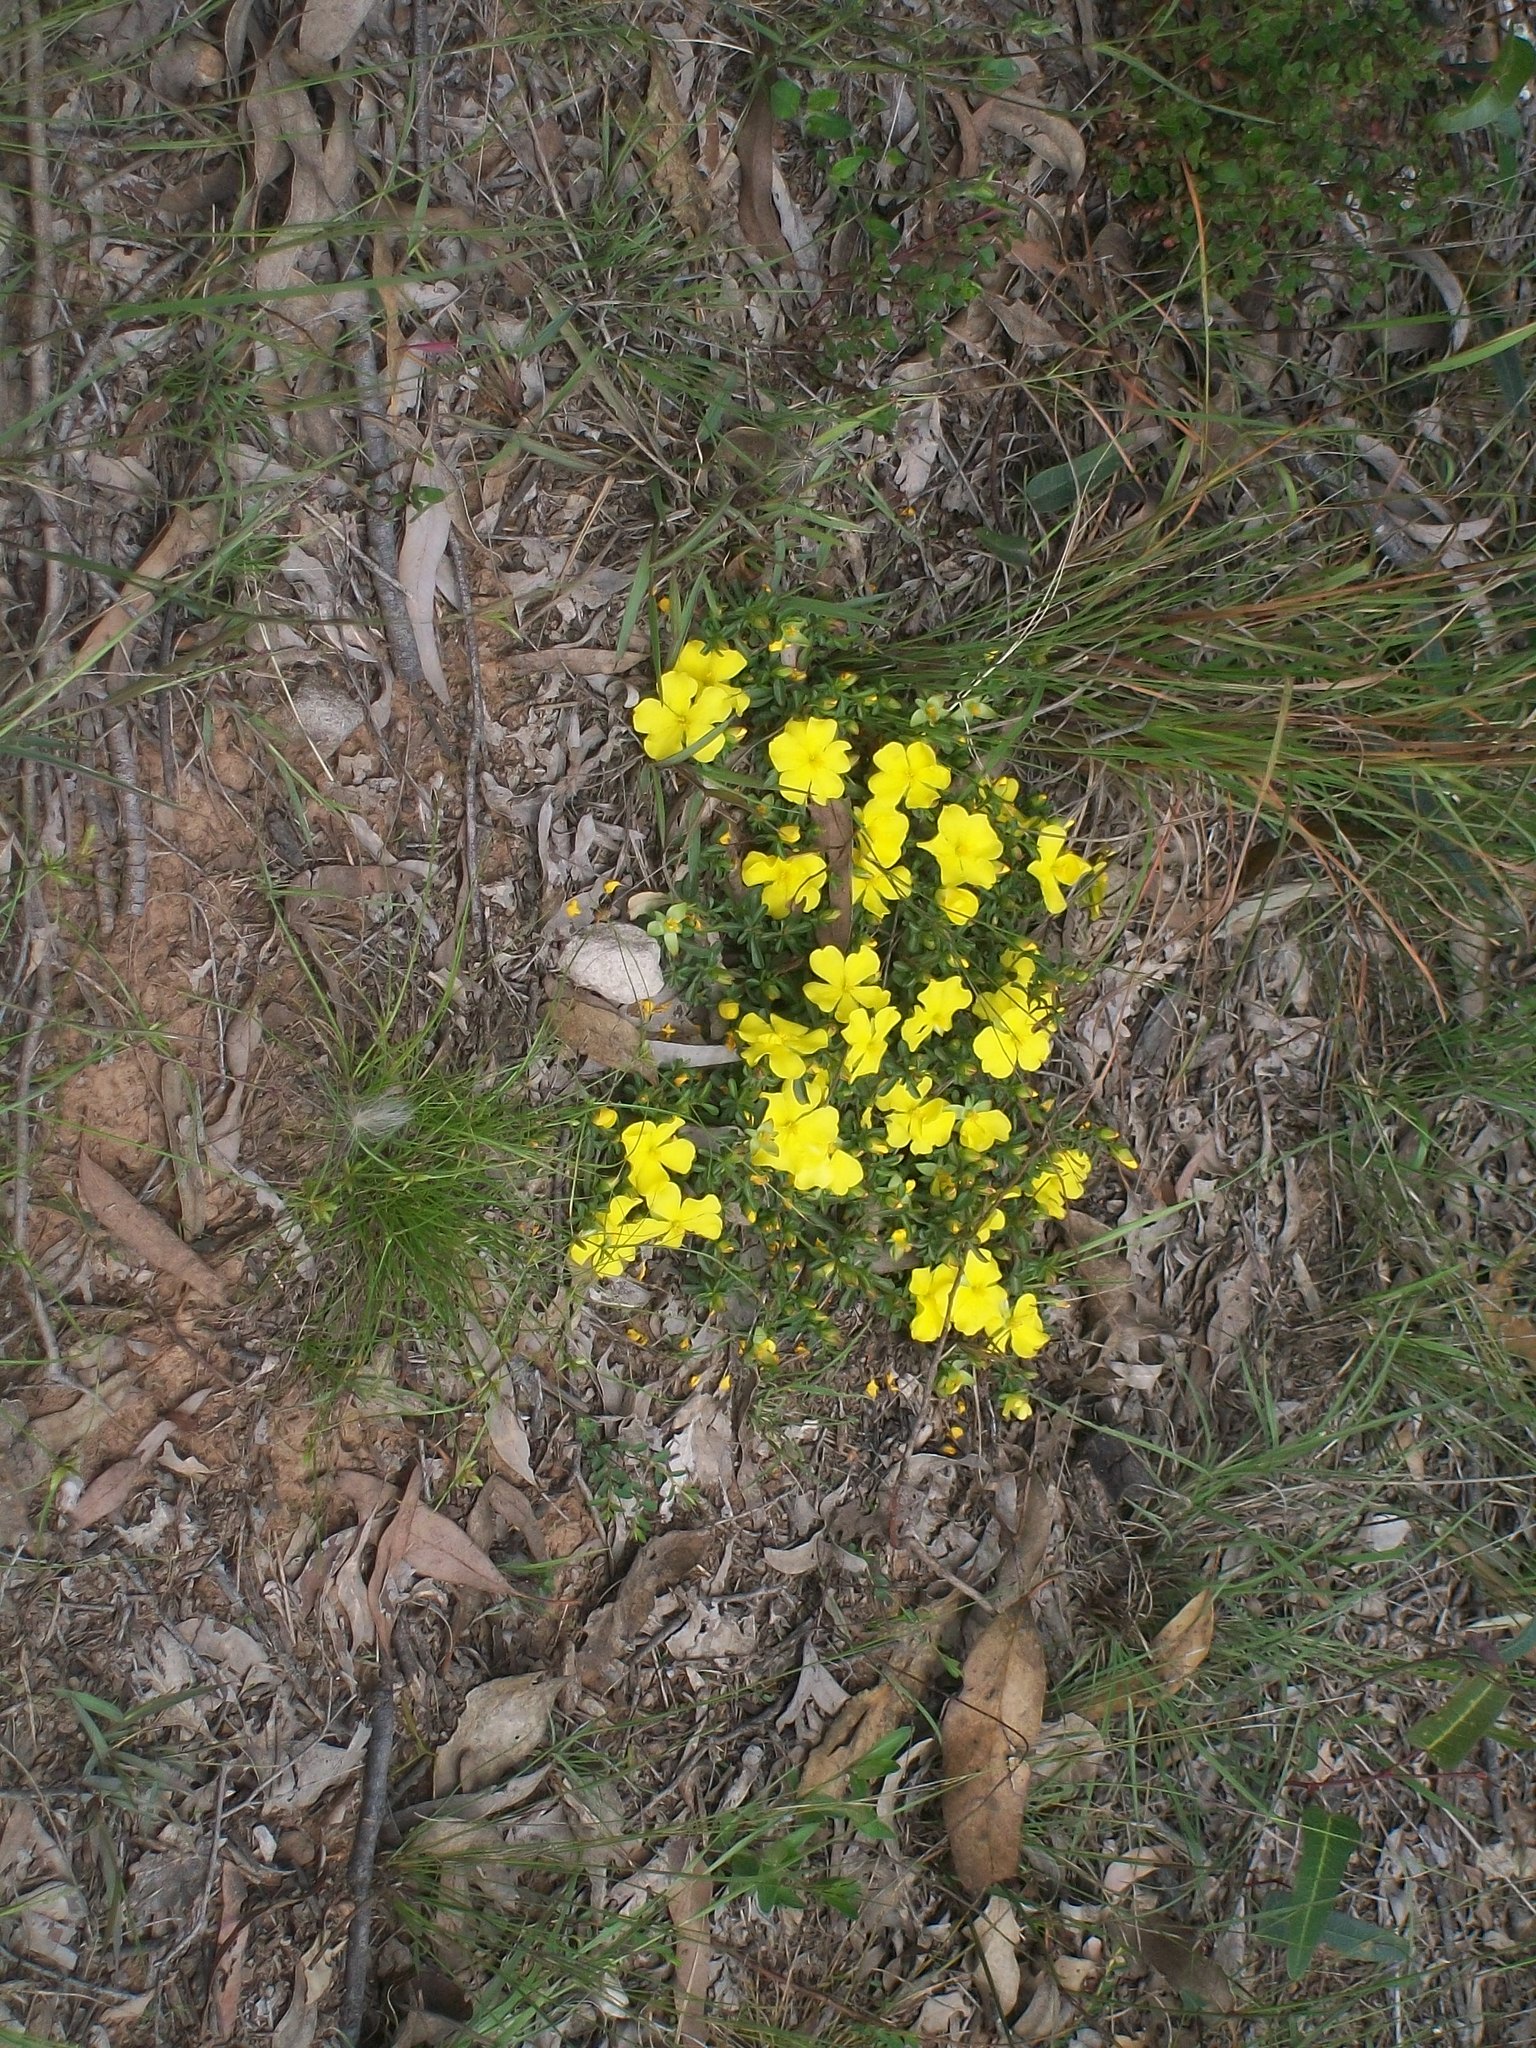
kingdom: Plantae
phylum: Tracheophyta
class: Magnoliopsida
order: Dilleniales
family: Dilleniaceae
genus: Hibbertia
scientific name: Hibbertia diffusa
